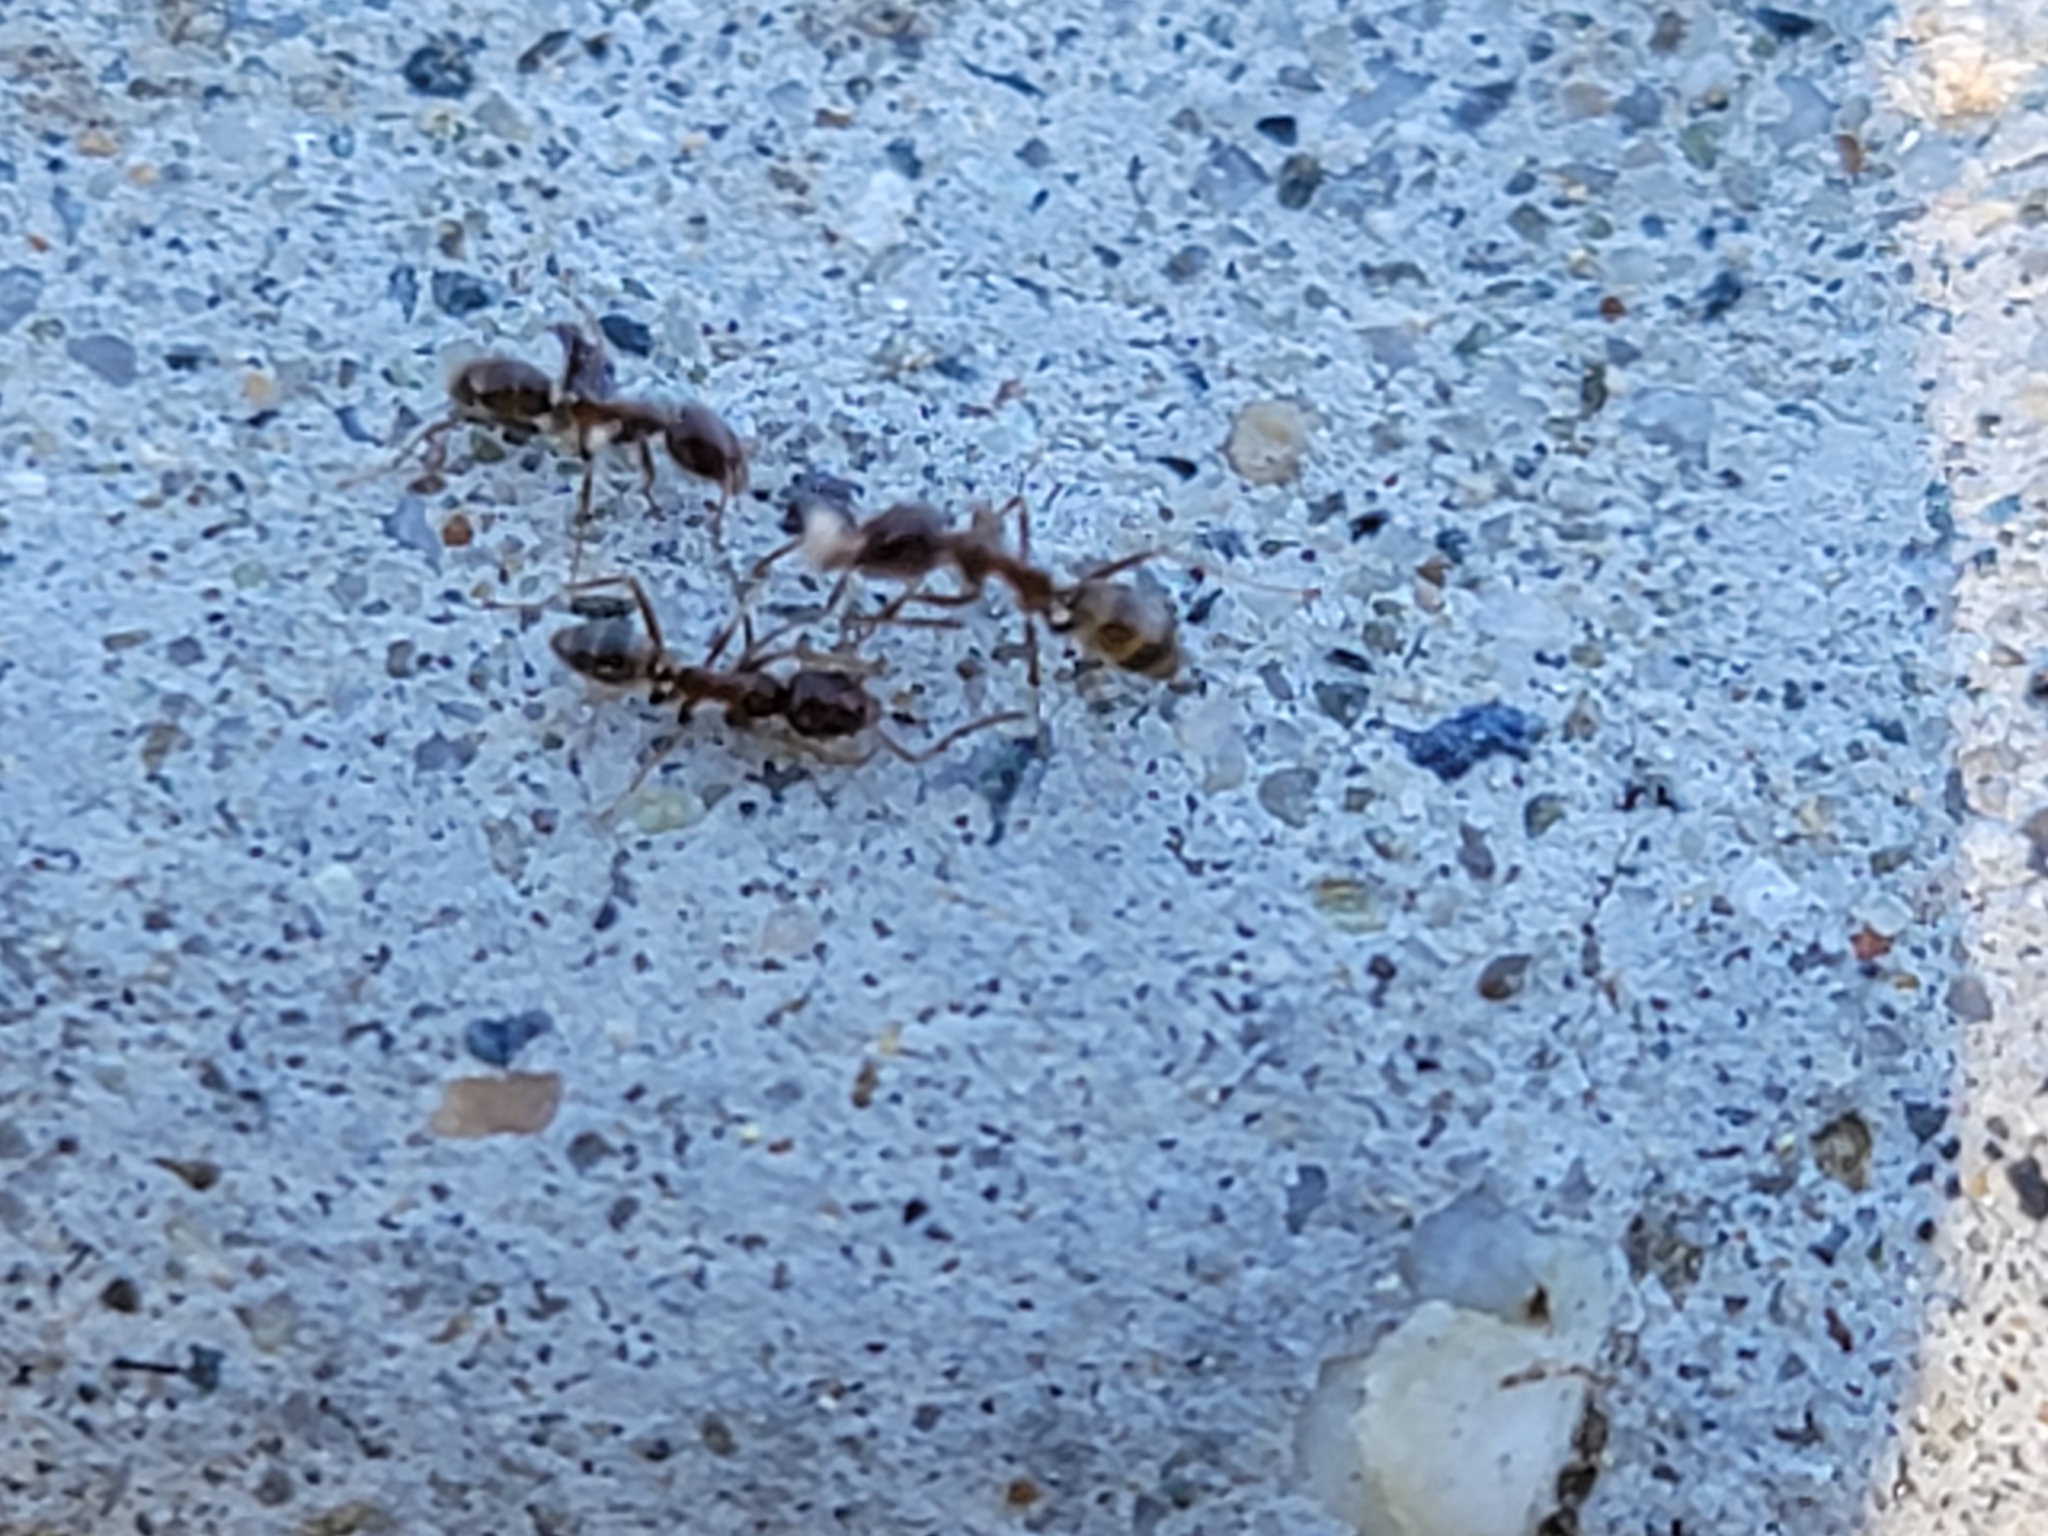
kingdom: Animalia
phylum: Arthropoda
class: Insecta
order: Hymenoptera
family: Formicidae
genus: Linepithema
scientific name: Linepithema humile
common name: Argentine ant
